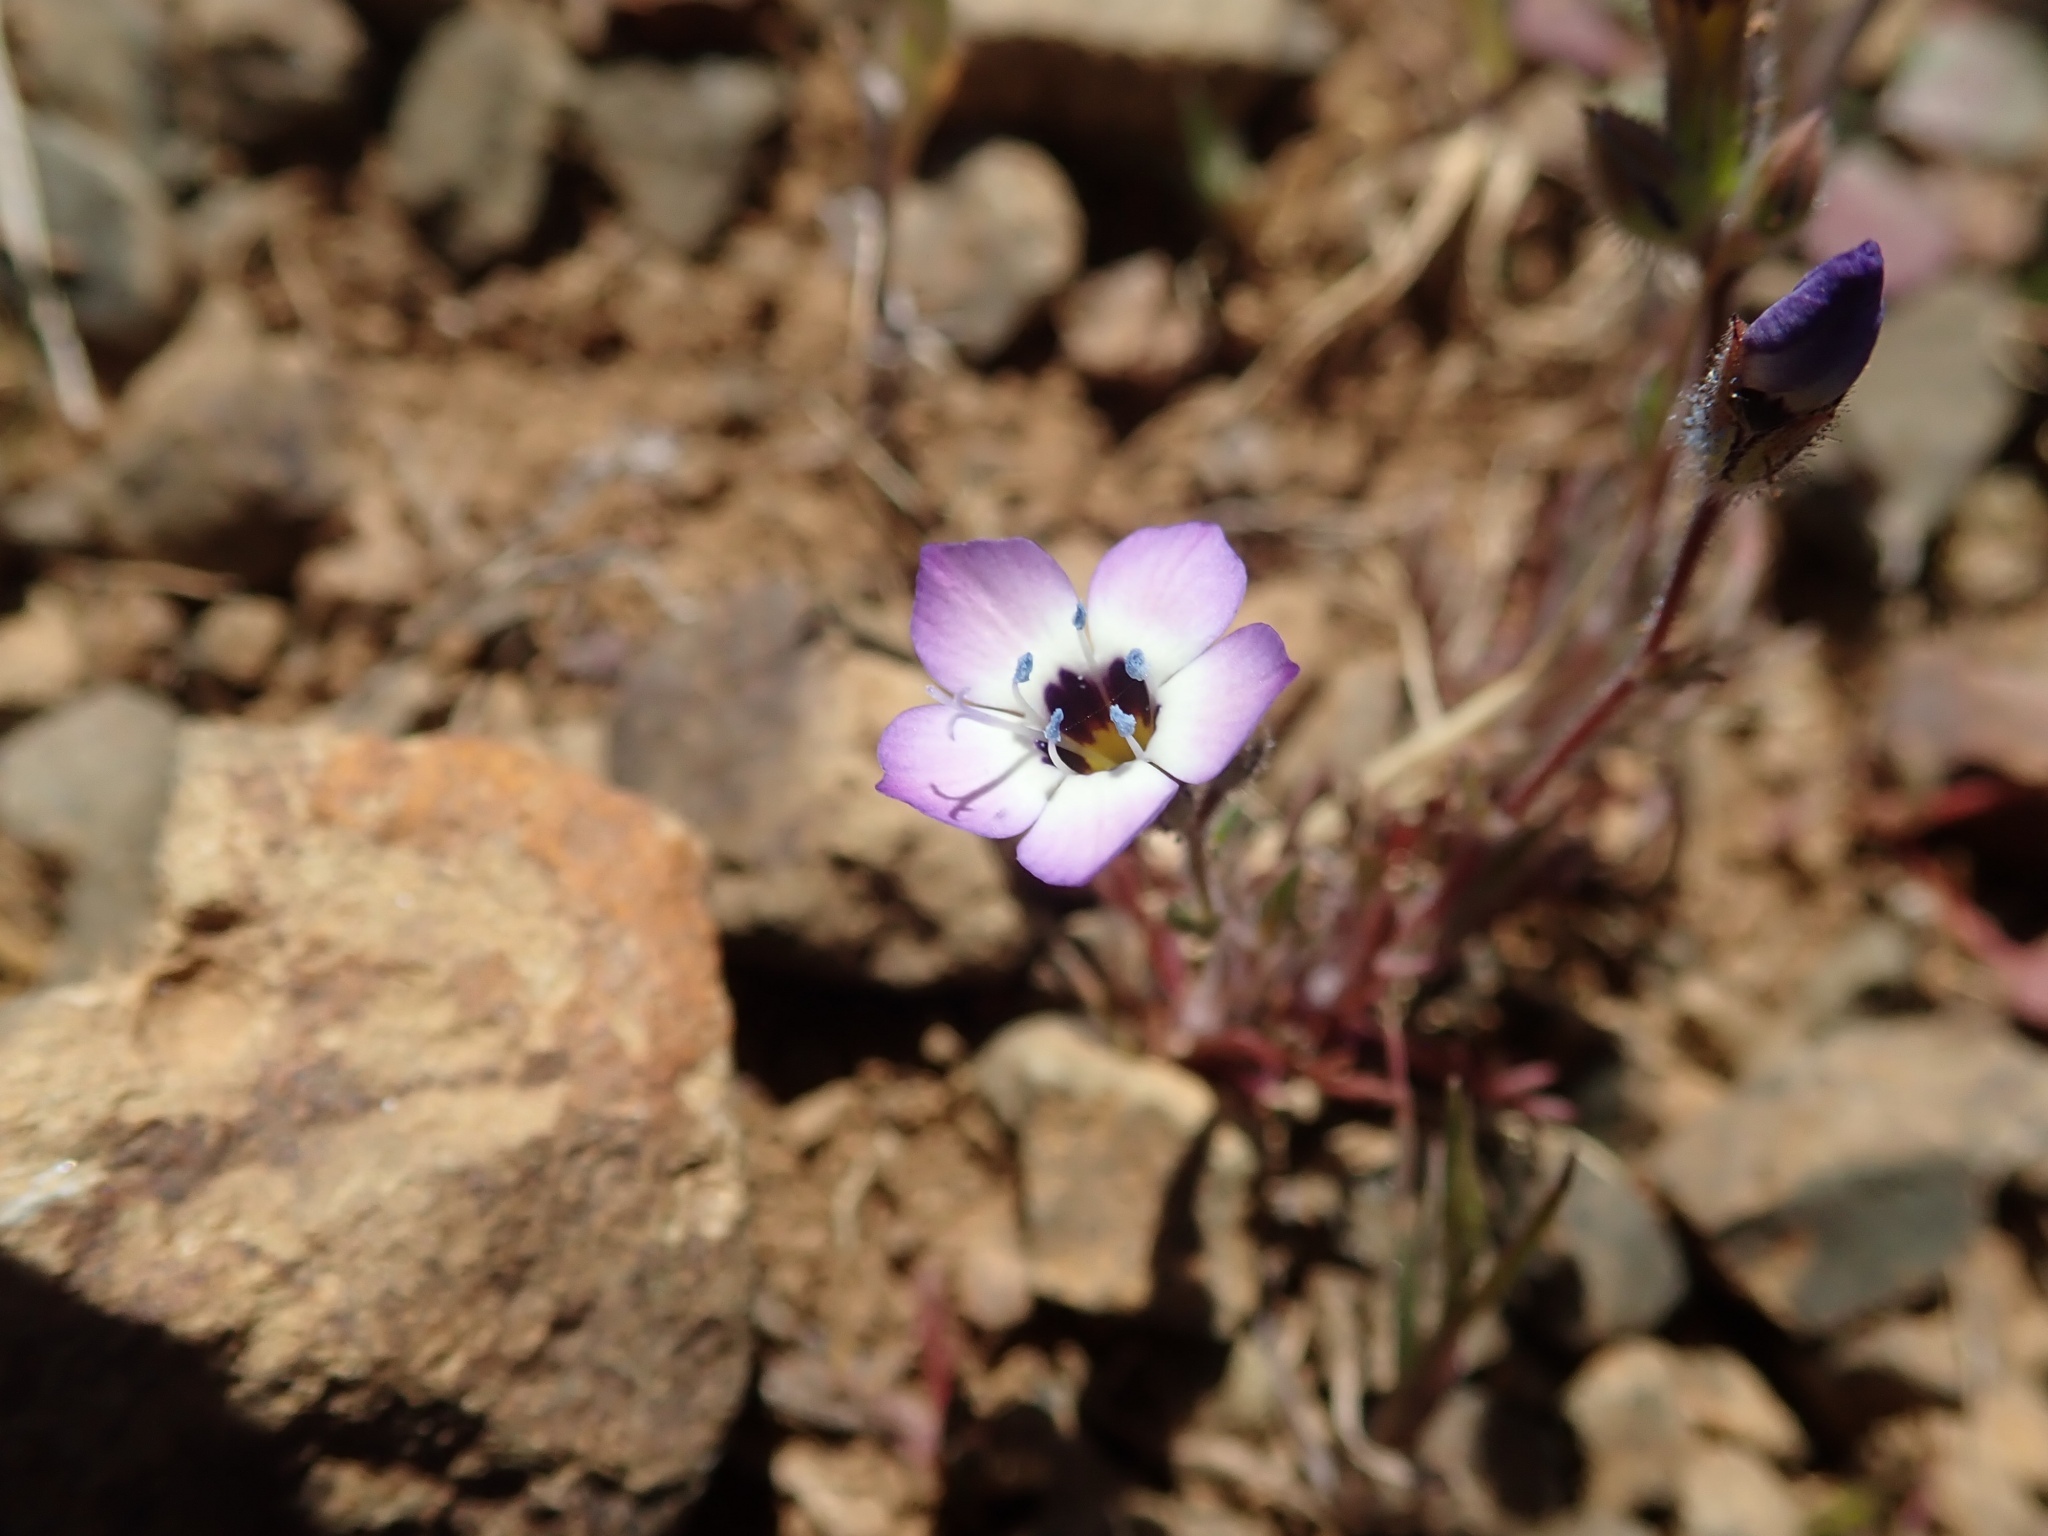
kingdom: Plantae
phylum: Tracheophyta
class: Magnoliopsida
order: Ericales
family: Polemoniaceae
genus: Gilia
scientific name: Gilia tricolor
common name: Bird's-eyes
